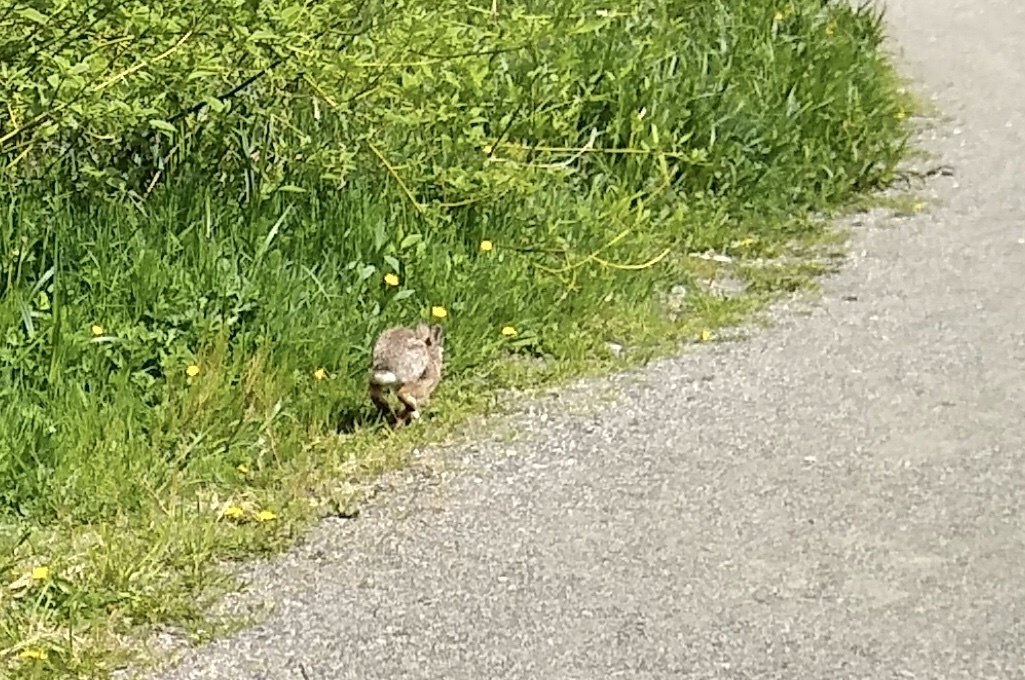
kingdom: Animalia
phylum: Chordata
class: Mammalia
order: Lagomorpha
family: Leporidae
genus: Sylvilagus
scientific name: Sylvilagus floridanus
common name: Eastern cottontail
